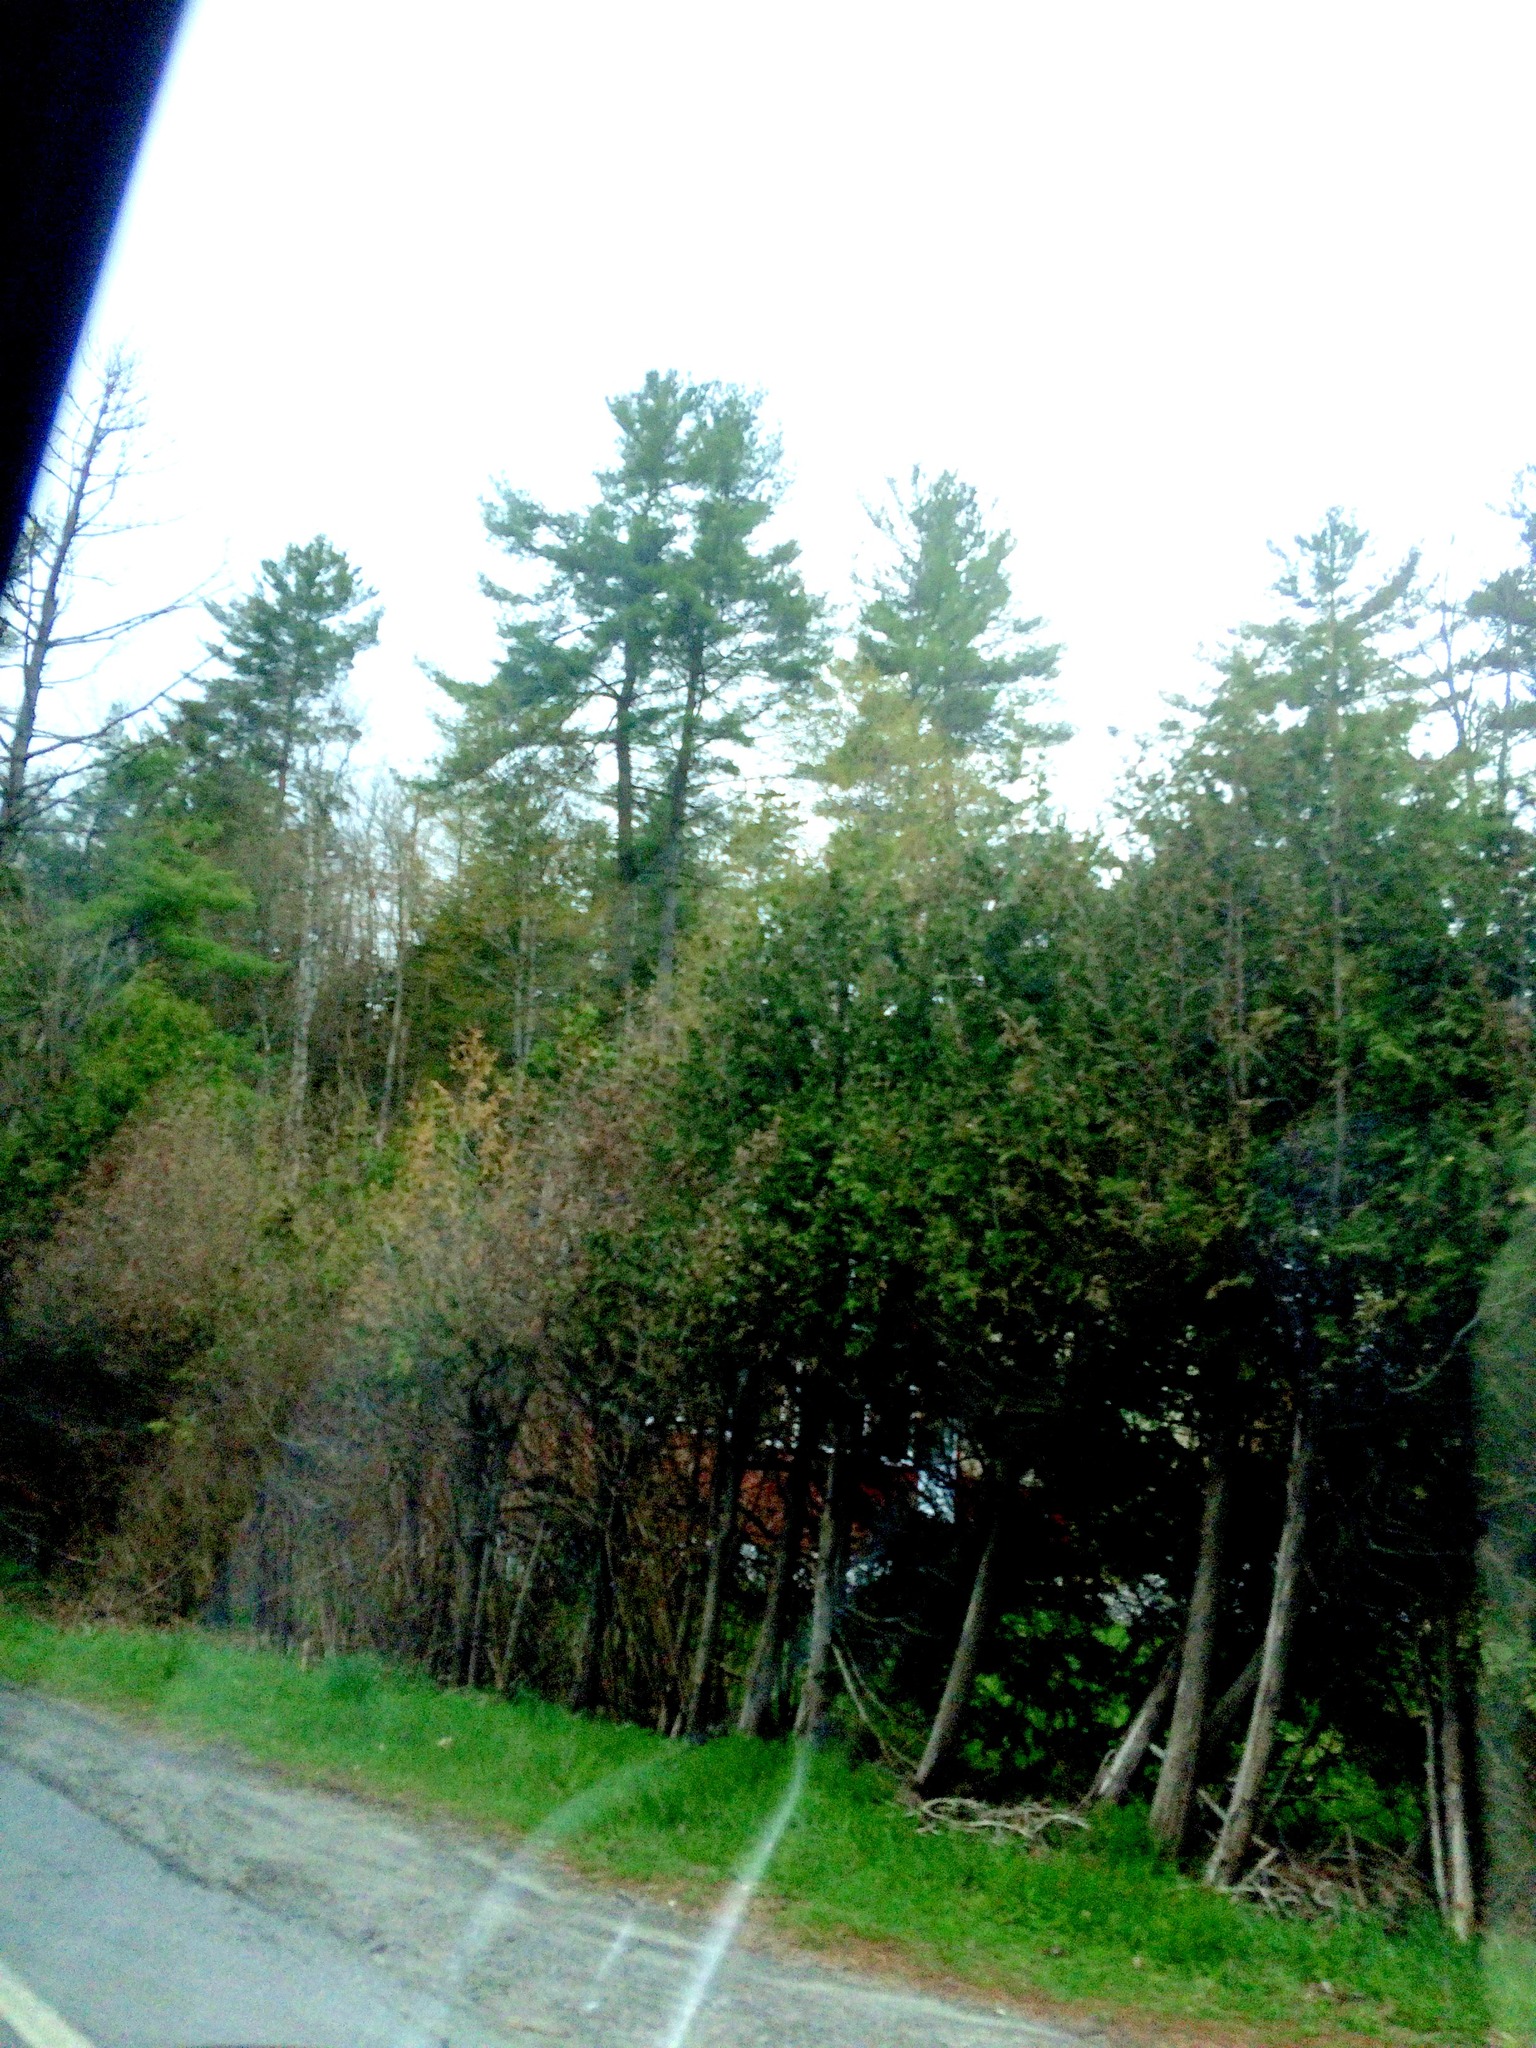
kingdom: Plantae
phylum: Tracheophyta
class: Pinopsida
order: Pinales
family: Pinaceae
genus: Pinus
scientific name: Pinus strobus
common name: Weymouth pine
